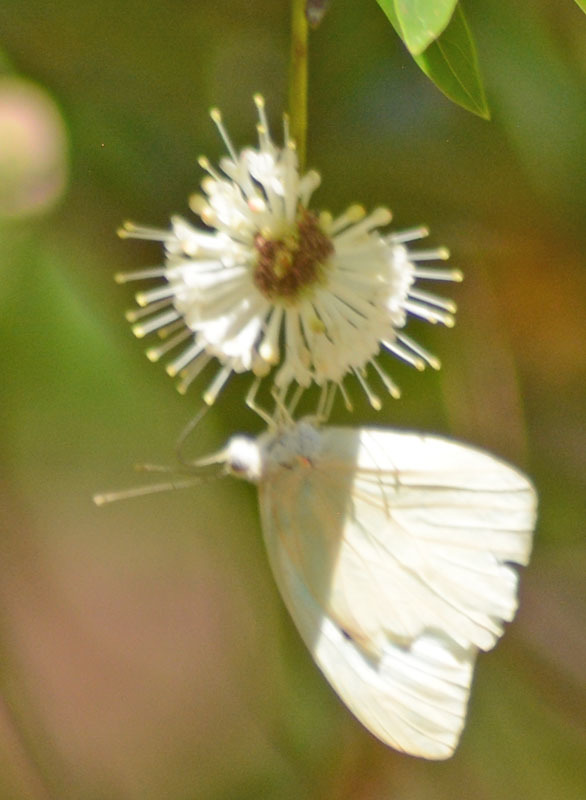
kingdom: Animalia
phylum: Arthropoda
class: Insecta
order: Lepidoptera
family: Pieridae
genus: Ganyra
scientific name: Ganyra josephina
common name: Giant white
